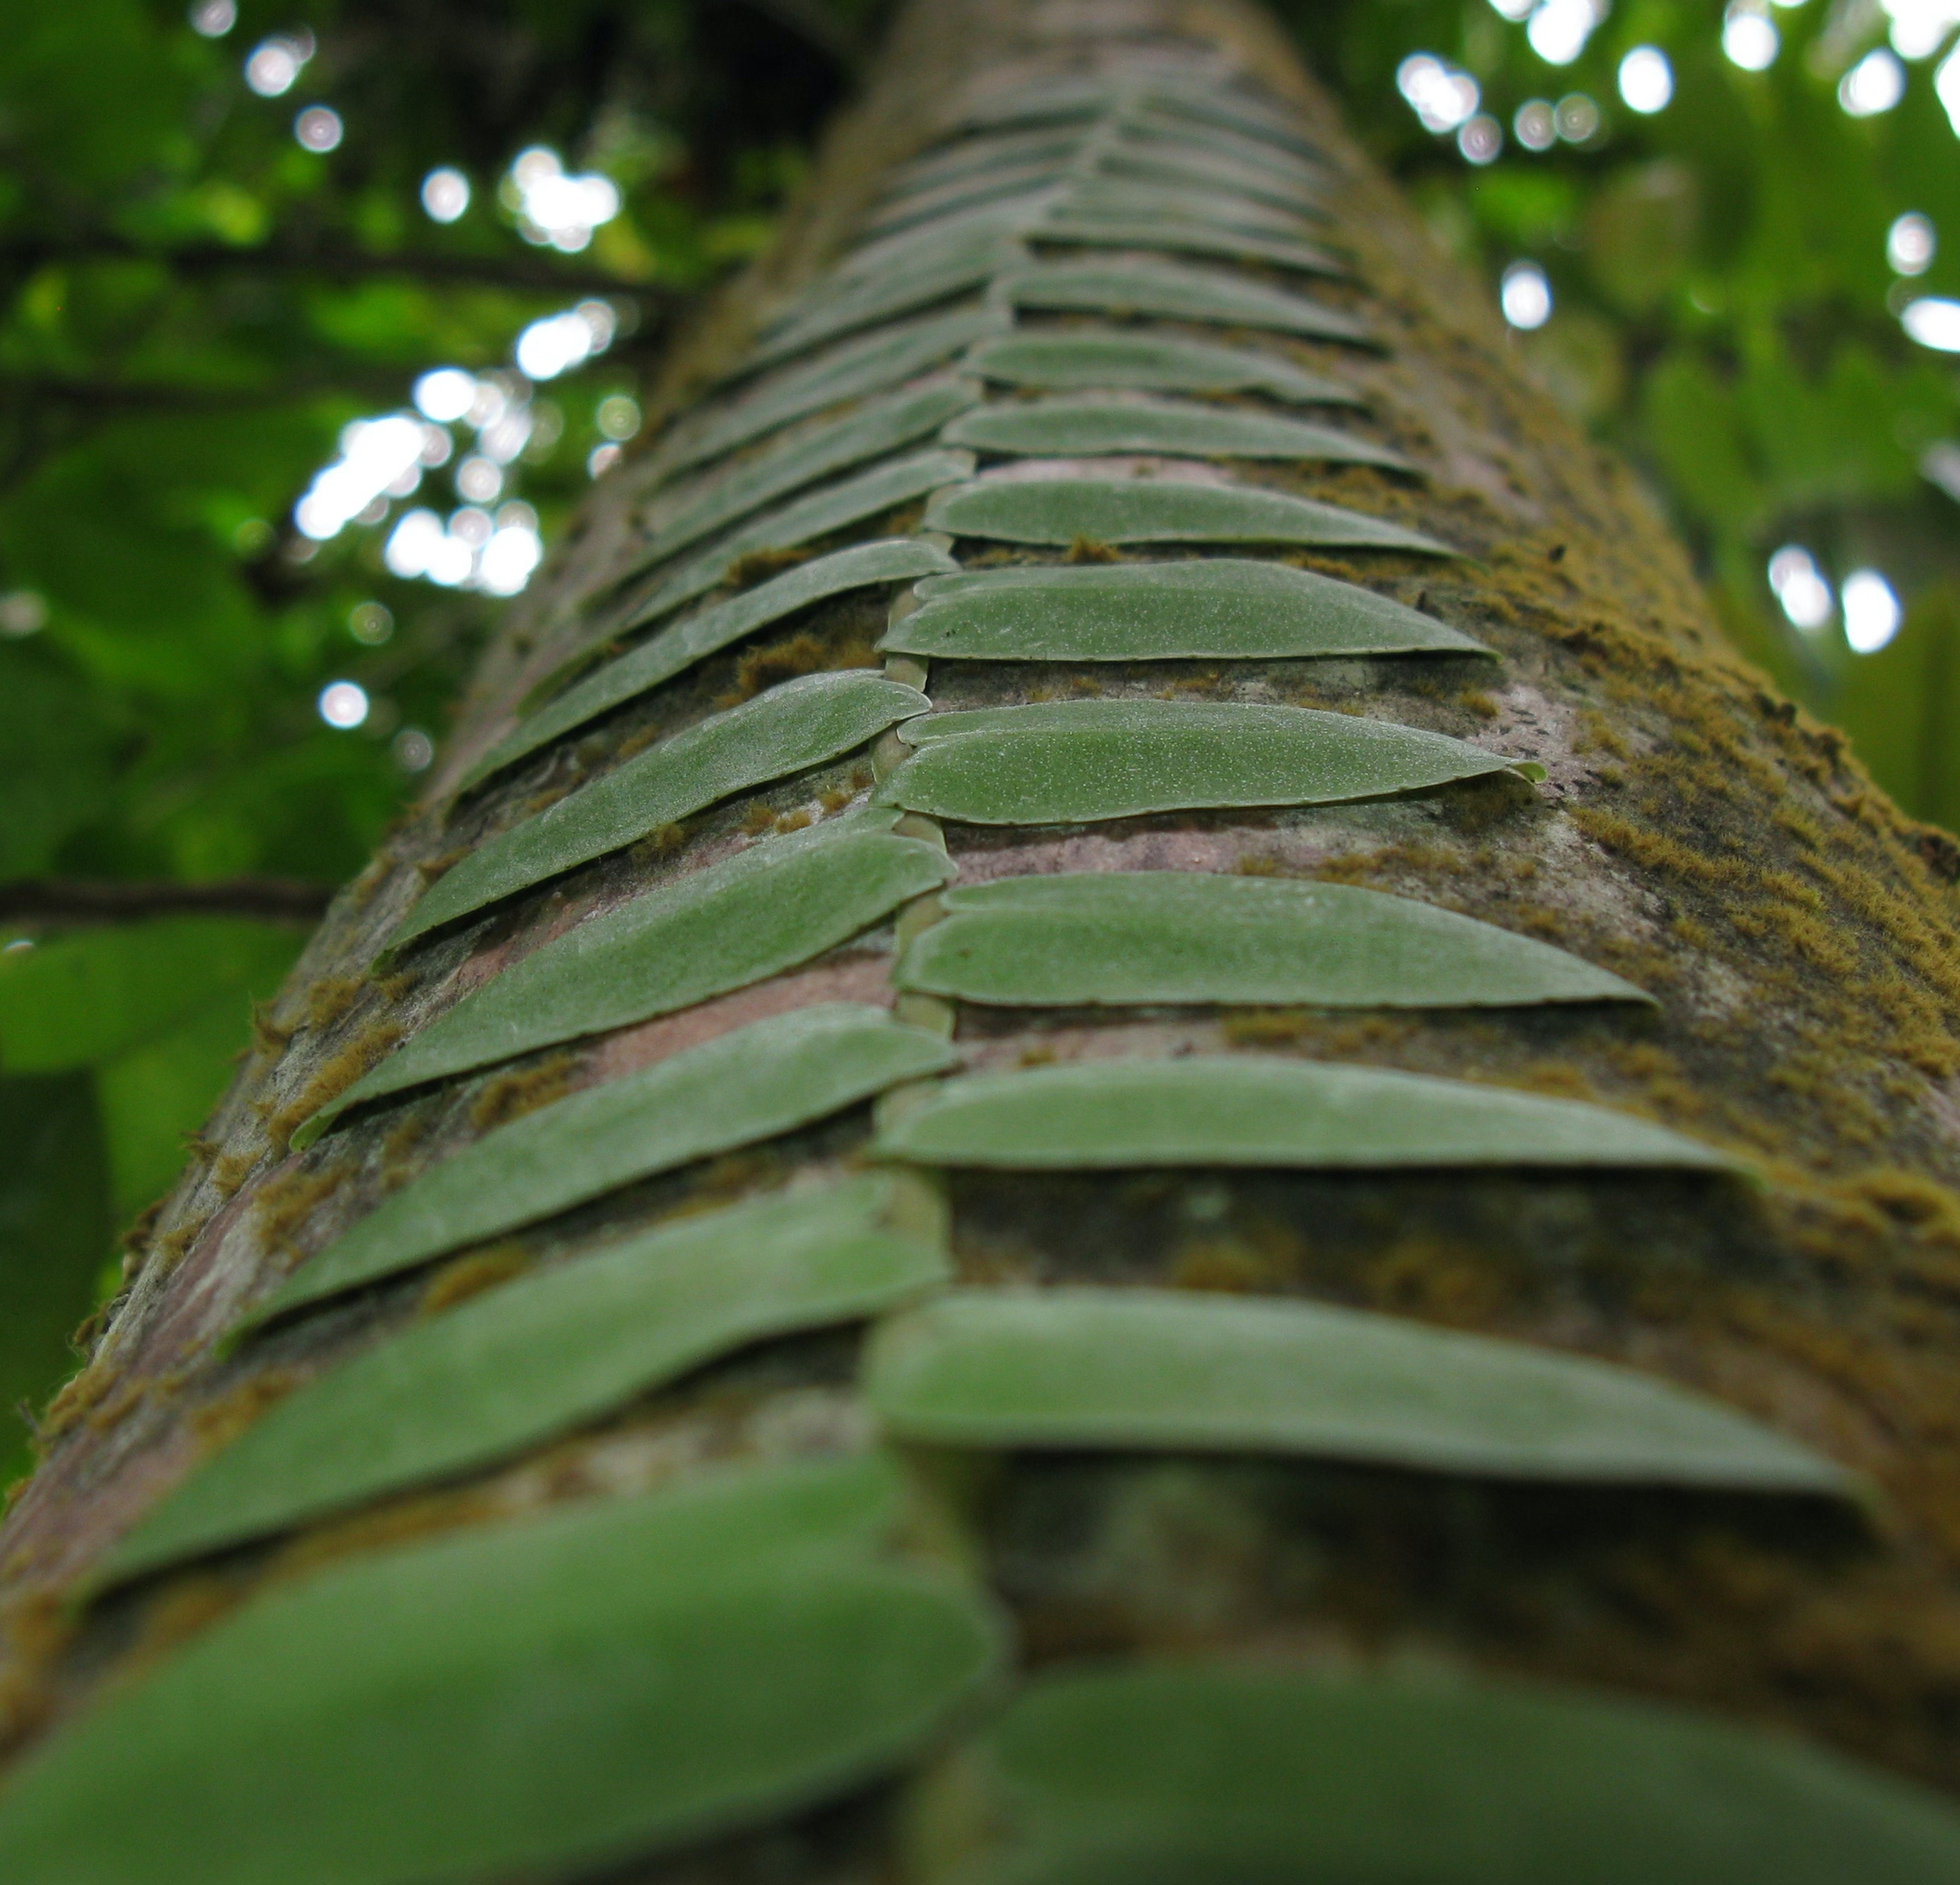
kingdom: Plantae
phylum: Tracheophyta
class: Magnoliopsida
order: Ericales
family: Marcgraviaceae
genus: Marcgravia
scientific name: Marcgravia umbellata
